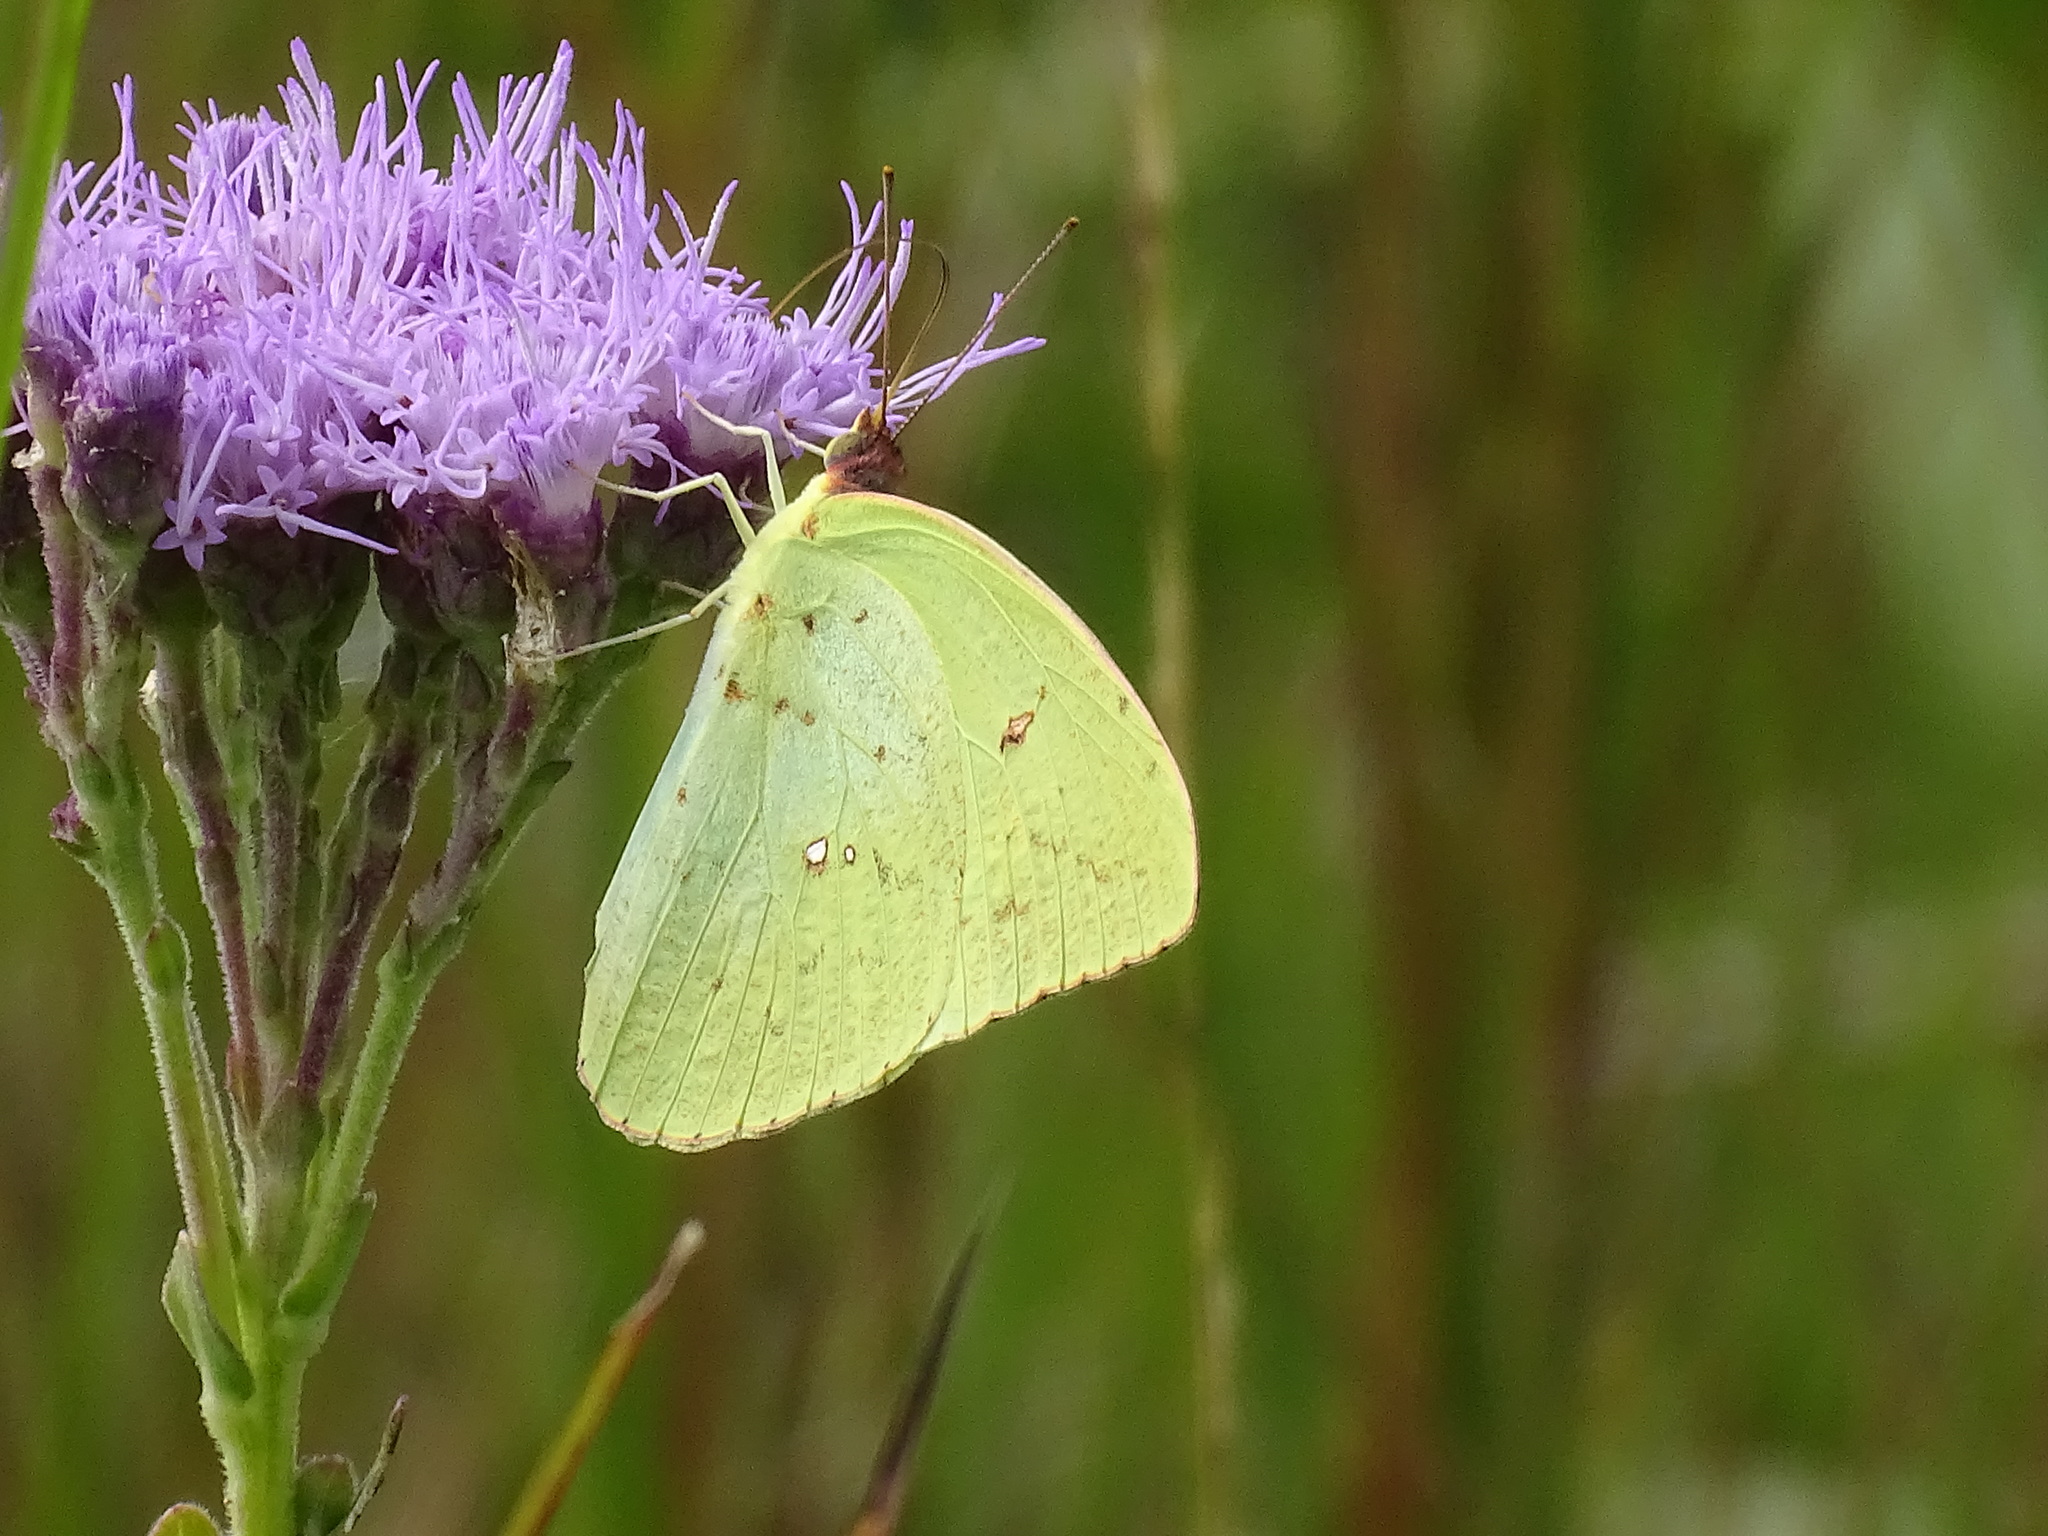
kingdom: Animalia
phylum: Arthropoda
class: Insecta
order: Lepidoptera
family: Pieridae
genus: Phoebis
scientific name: Phoebis sennae
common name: Cloudless sulphur
